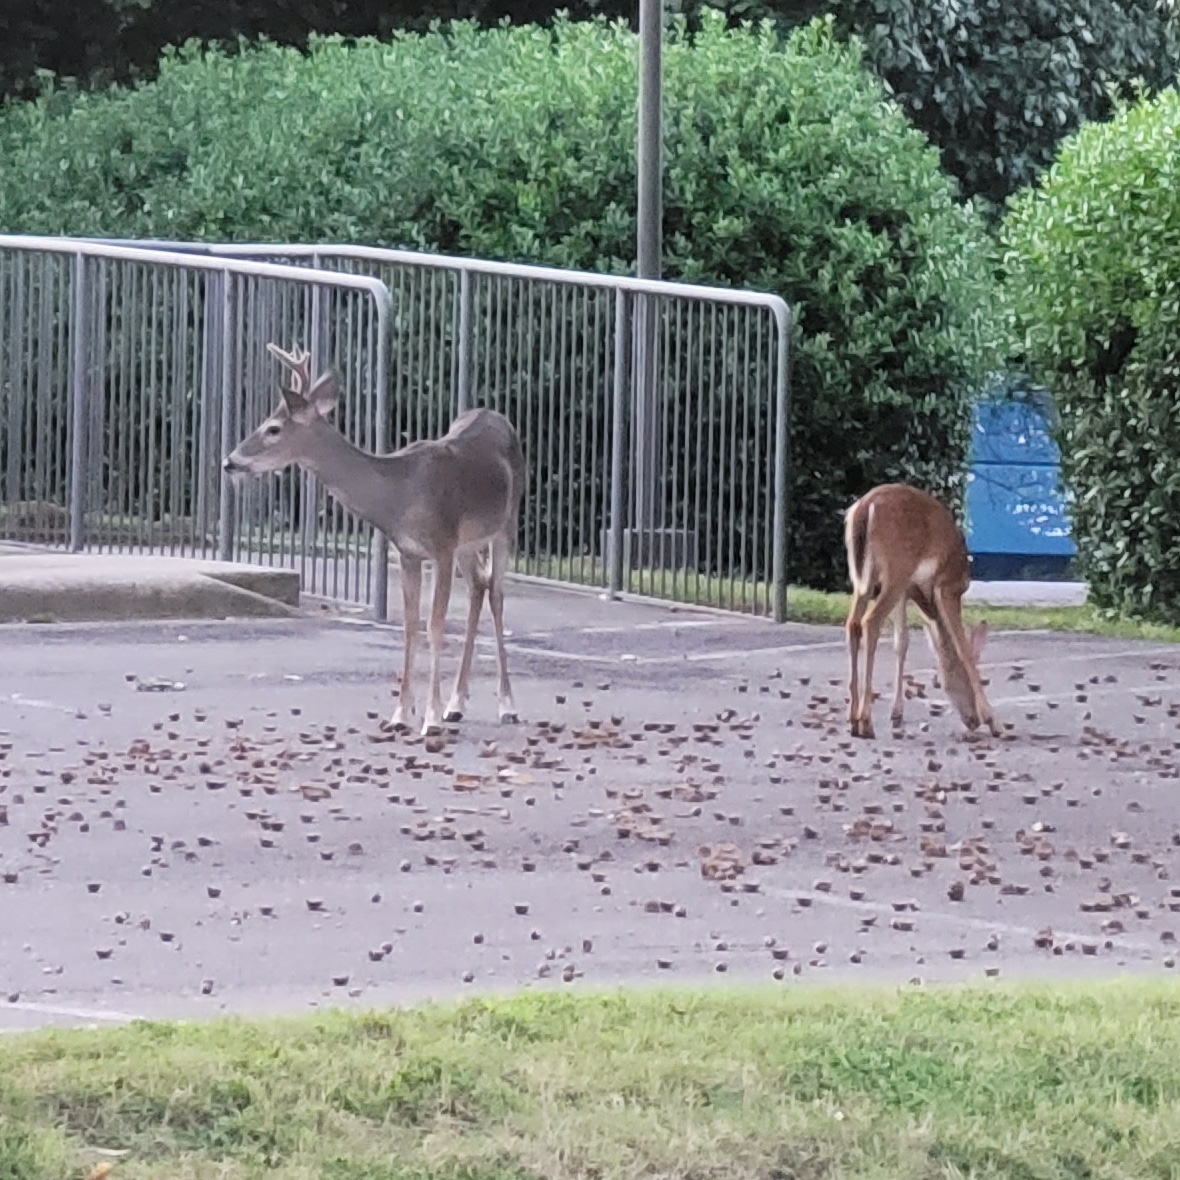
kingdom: Animalia
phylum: Chordata
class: Mammalia
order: Artiodactyla
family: Cervidae
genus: Odocoileus
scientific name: Odocoileus virginianus
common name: White-tailed deer
